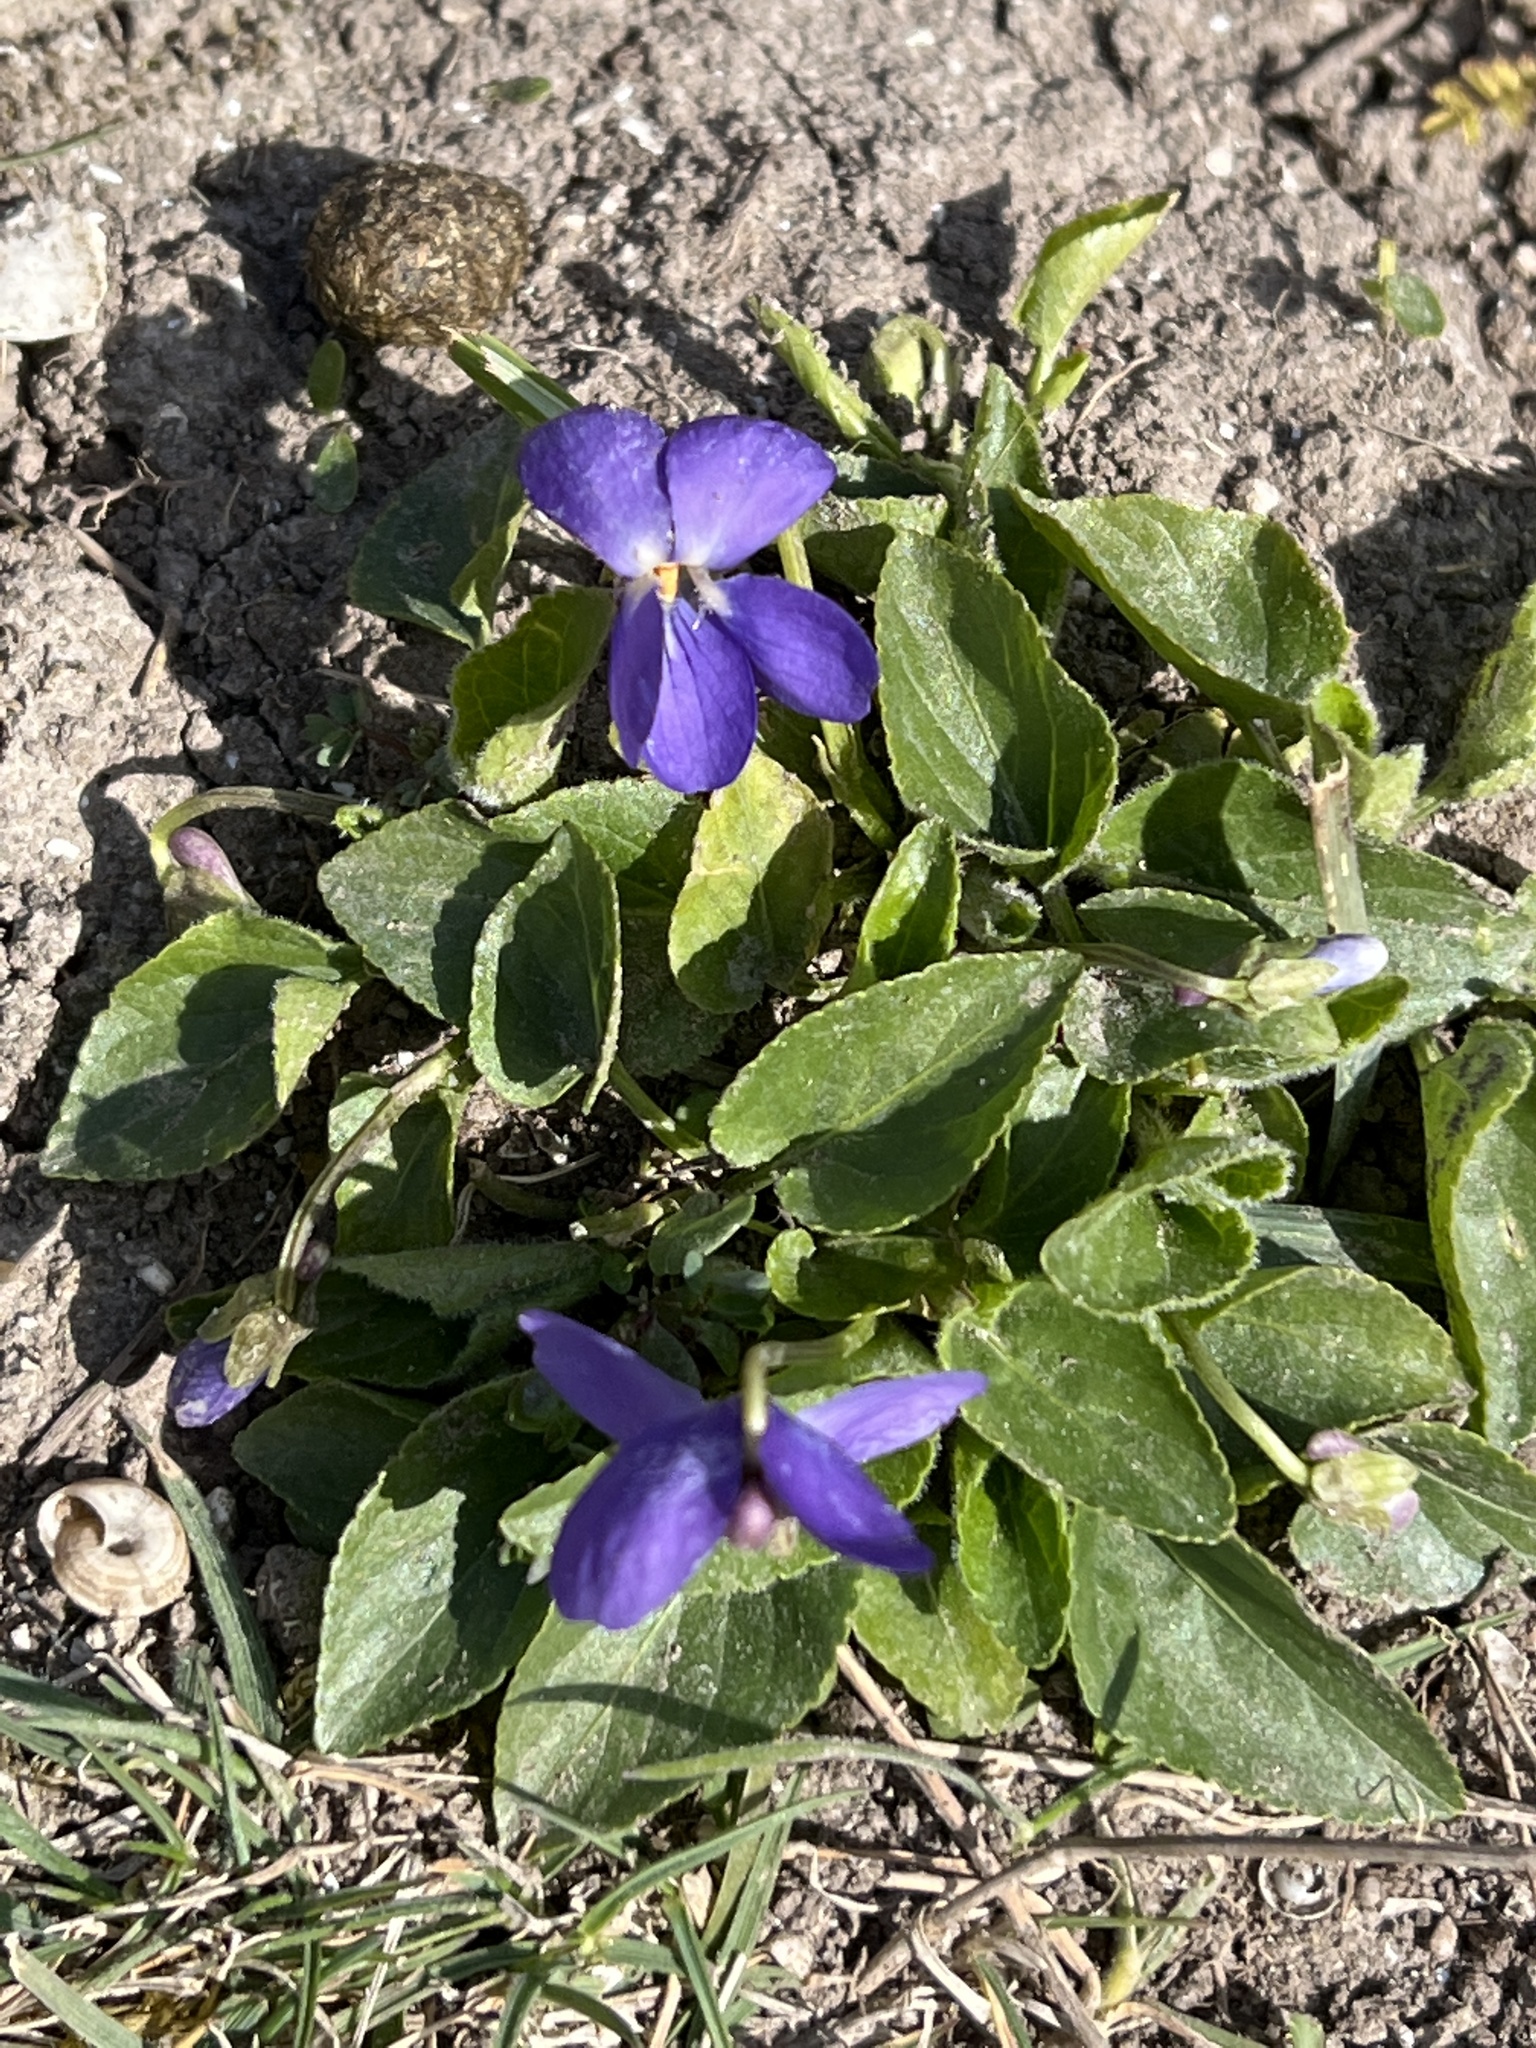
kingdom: Plantae
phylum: Tracheophyta
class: Magnoliopsida
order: Malpighiales
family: Violaceae
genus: Viola
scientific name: Viola hirta
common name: Hairy violet
